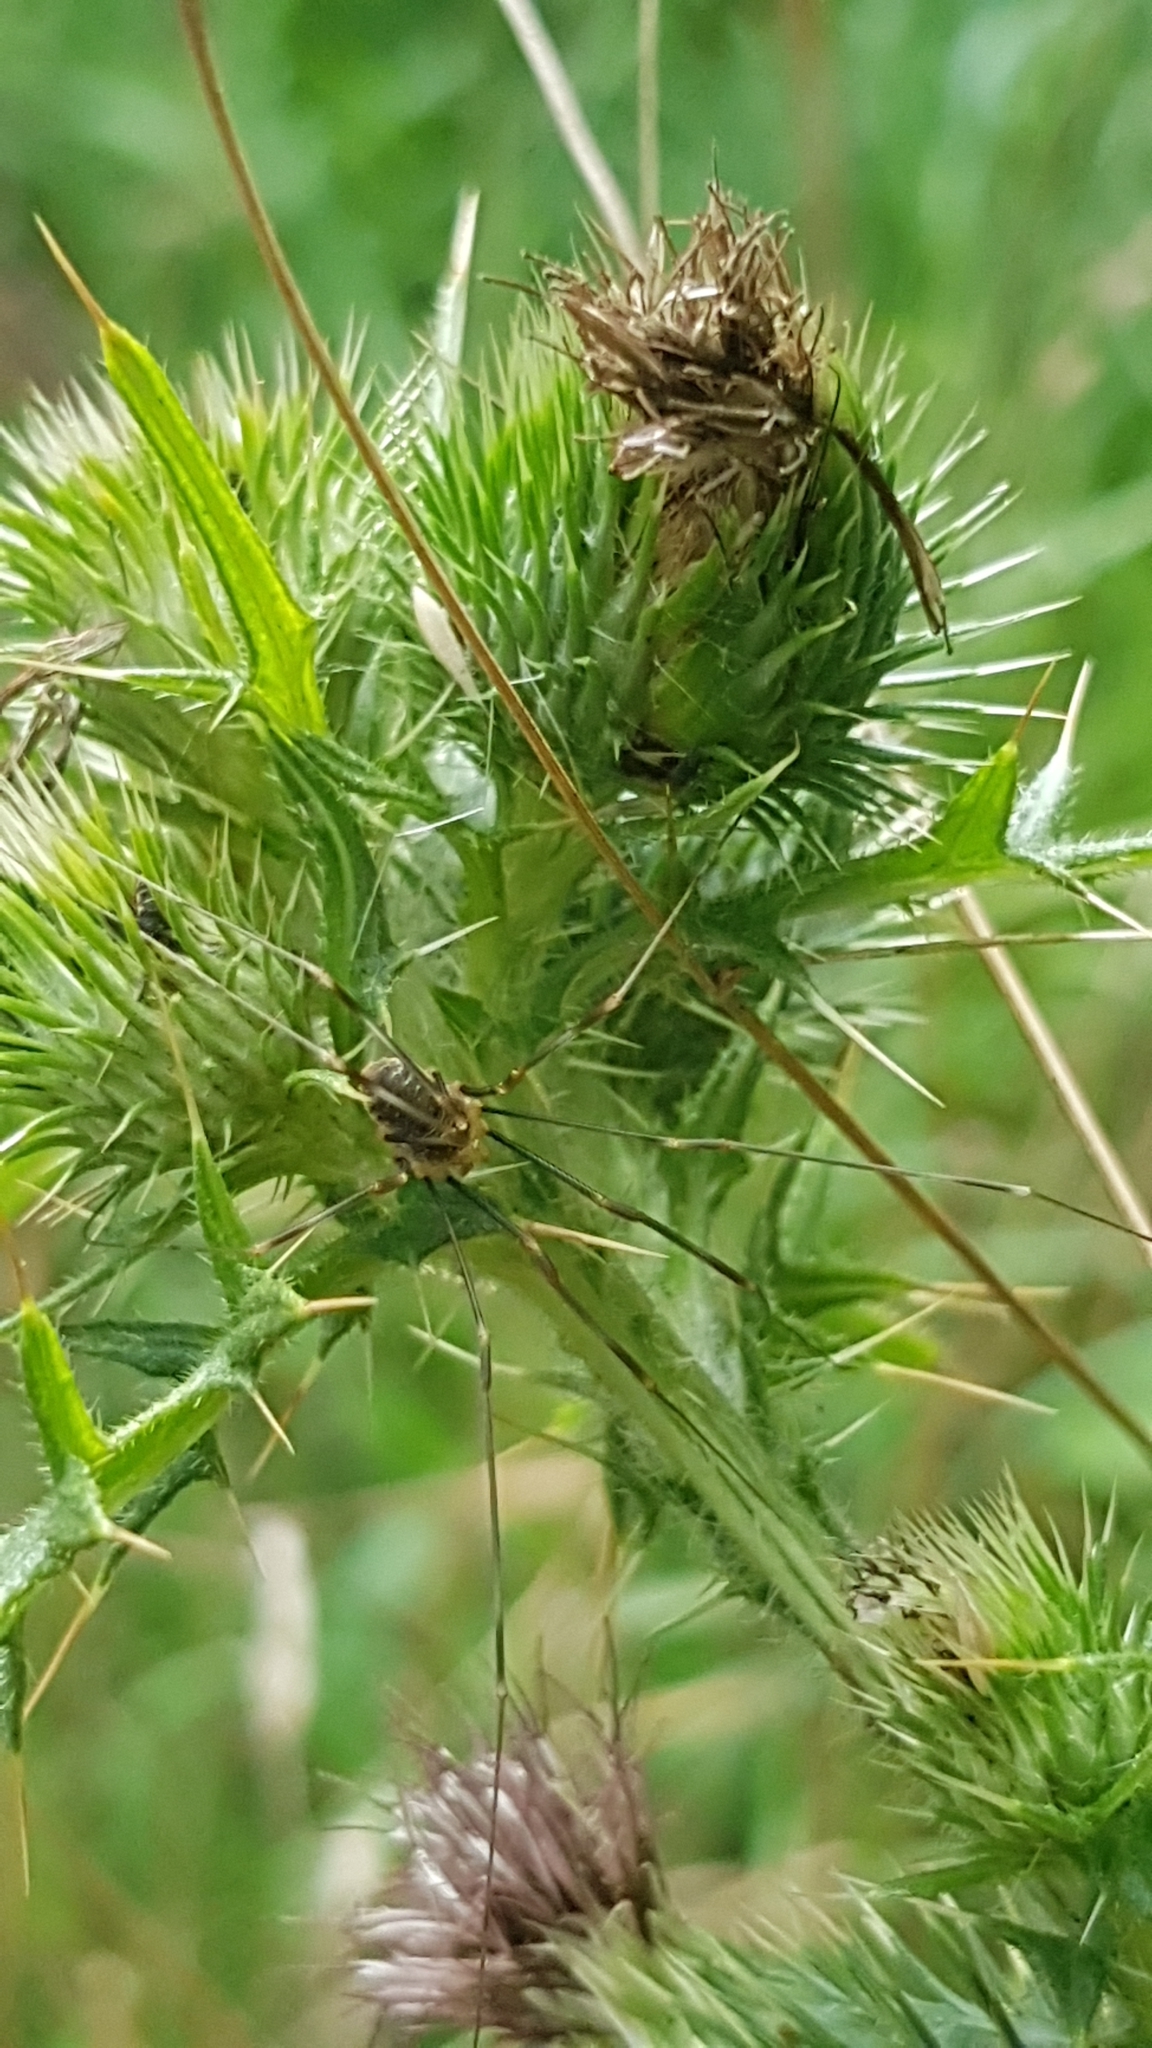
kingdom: Animalia
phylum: Arthropoda
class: Arachnida
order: Opiliones
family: Phalangiidae
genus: Opilio
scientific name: Opilio canestrinii
